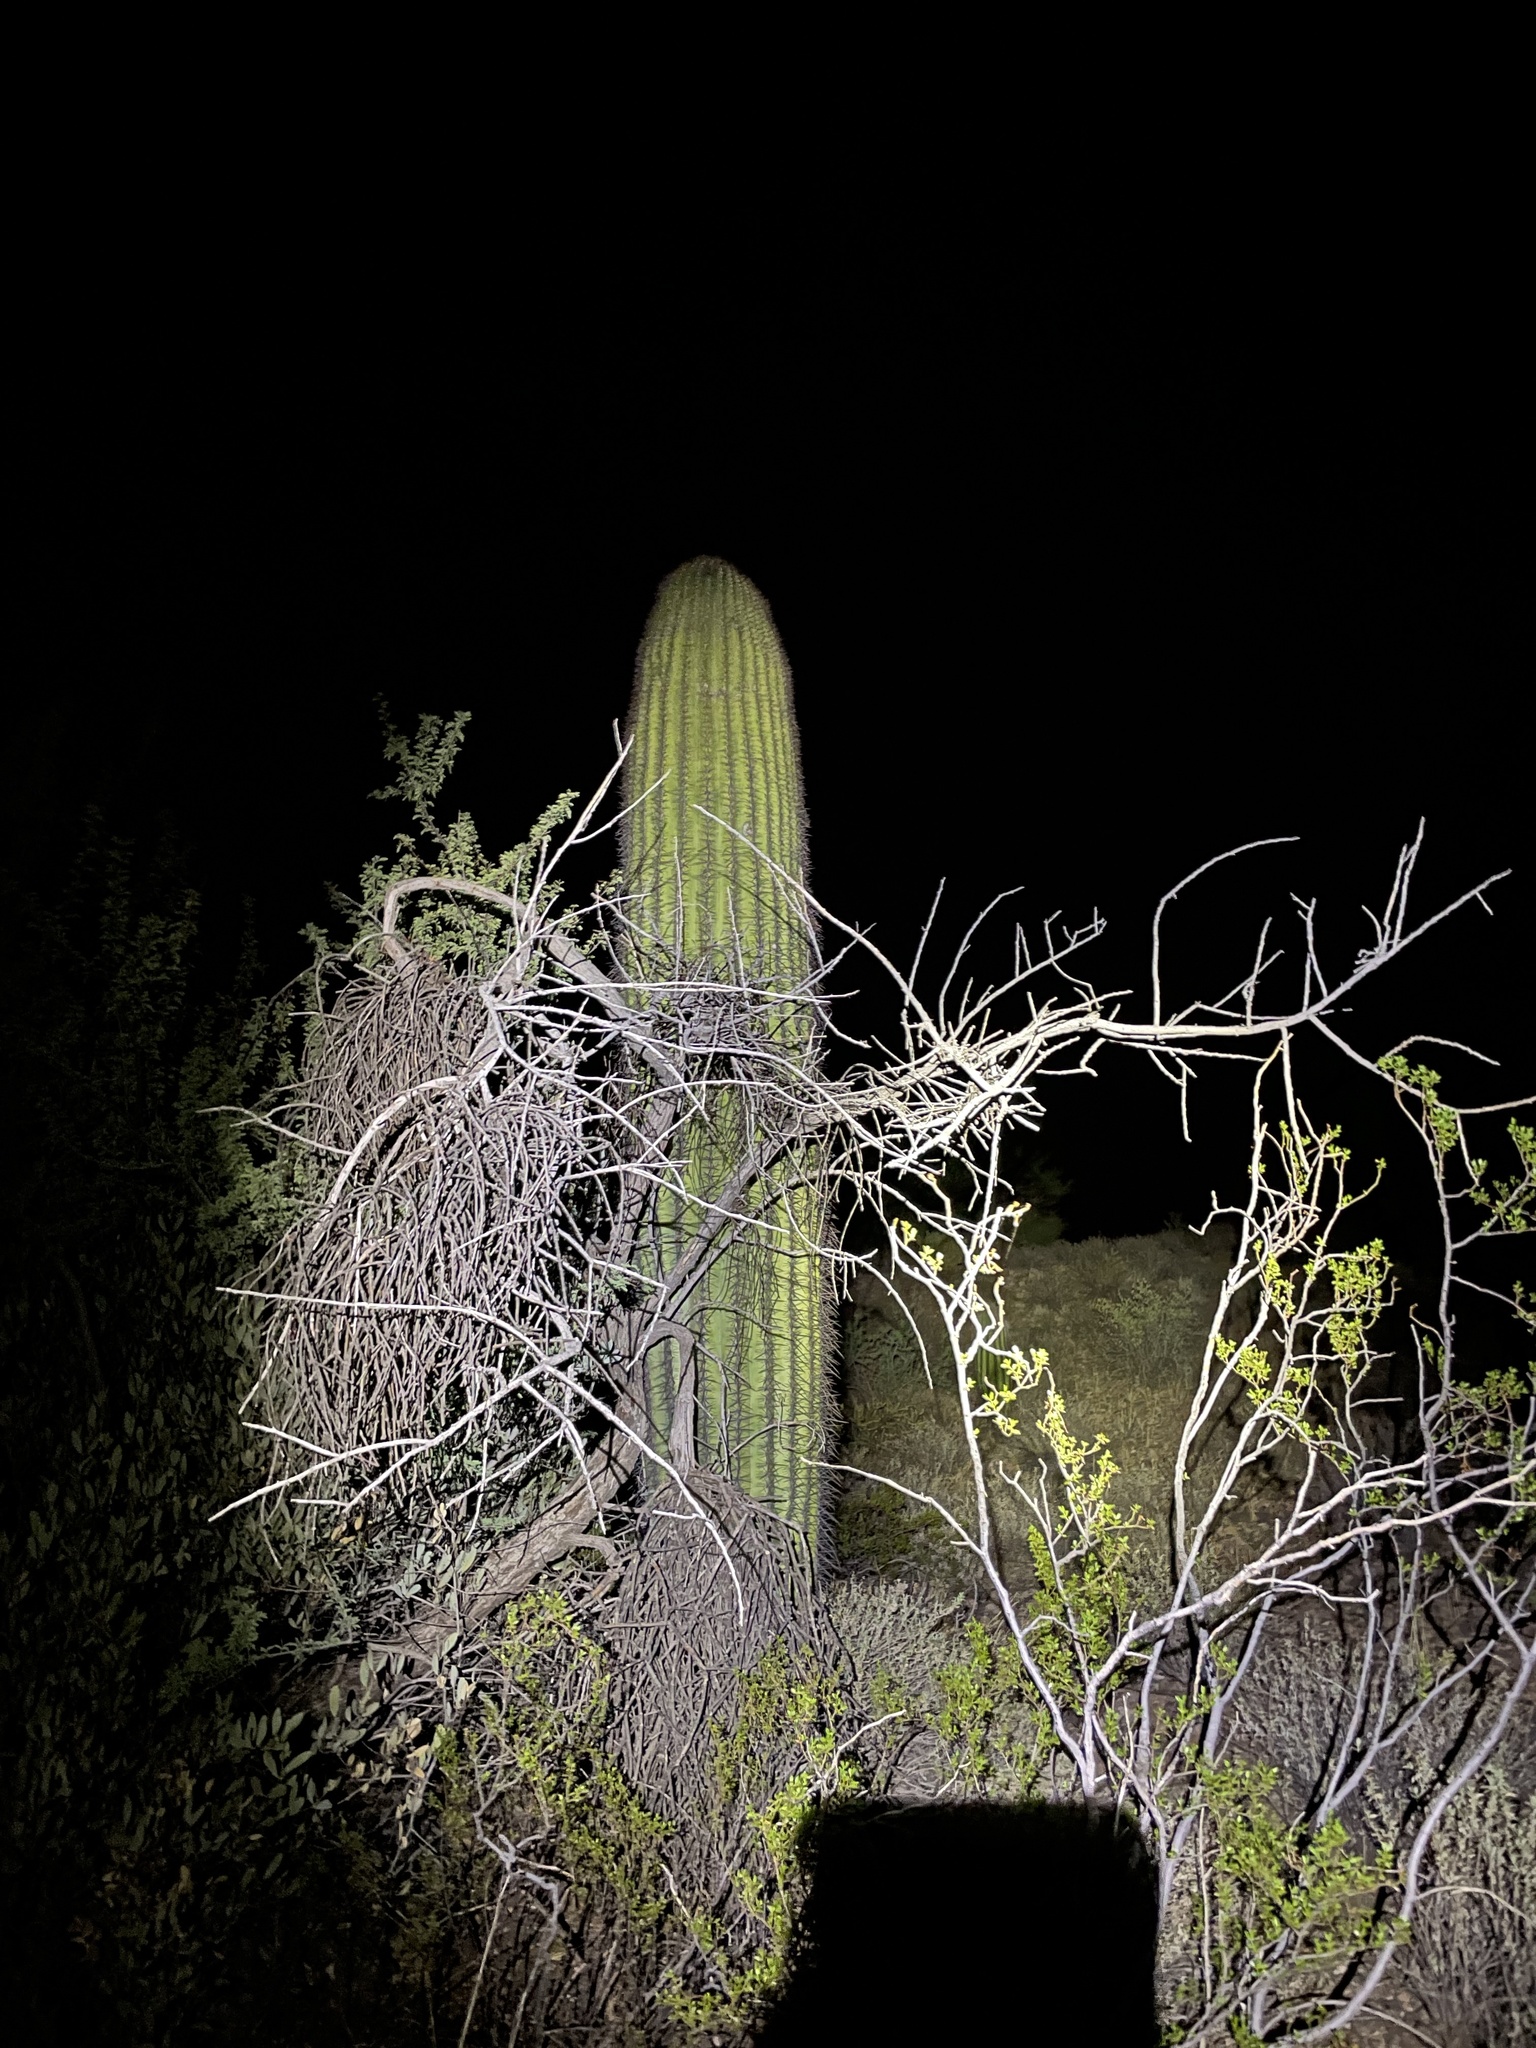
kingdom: Plantae
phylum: Tracheophyta
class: Magnoliopsida
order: Caryophyllales
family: Cactaceae
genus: Carnegiea
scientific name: Carnegiea gigantea
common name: Saguaro
